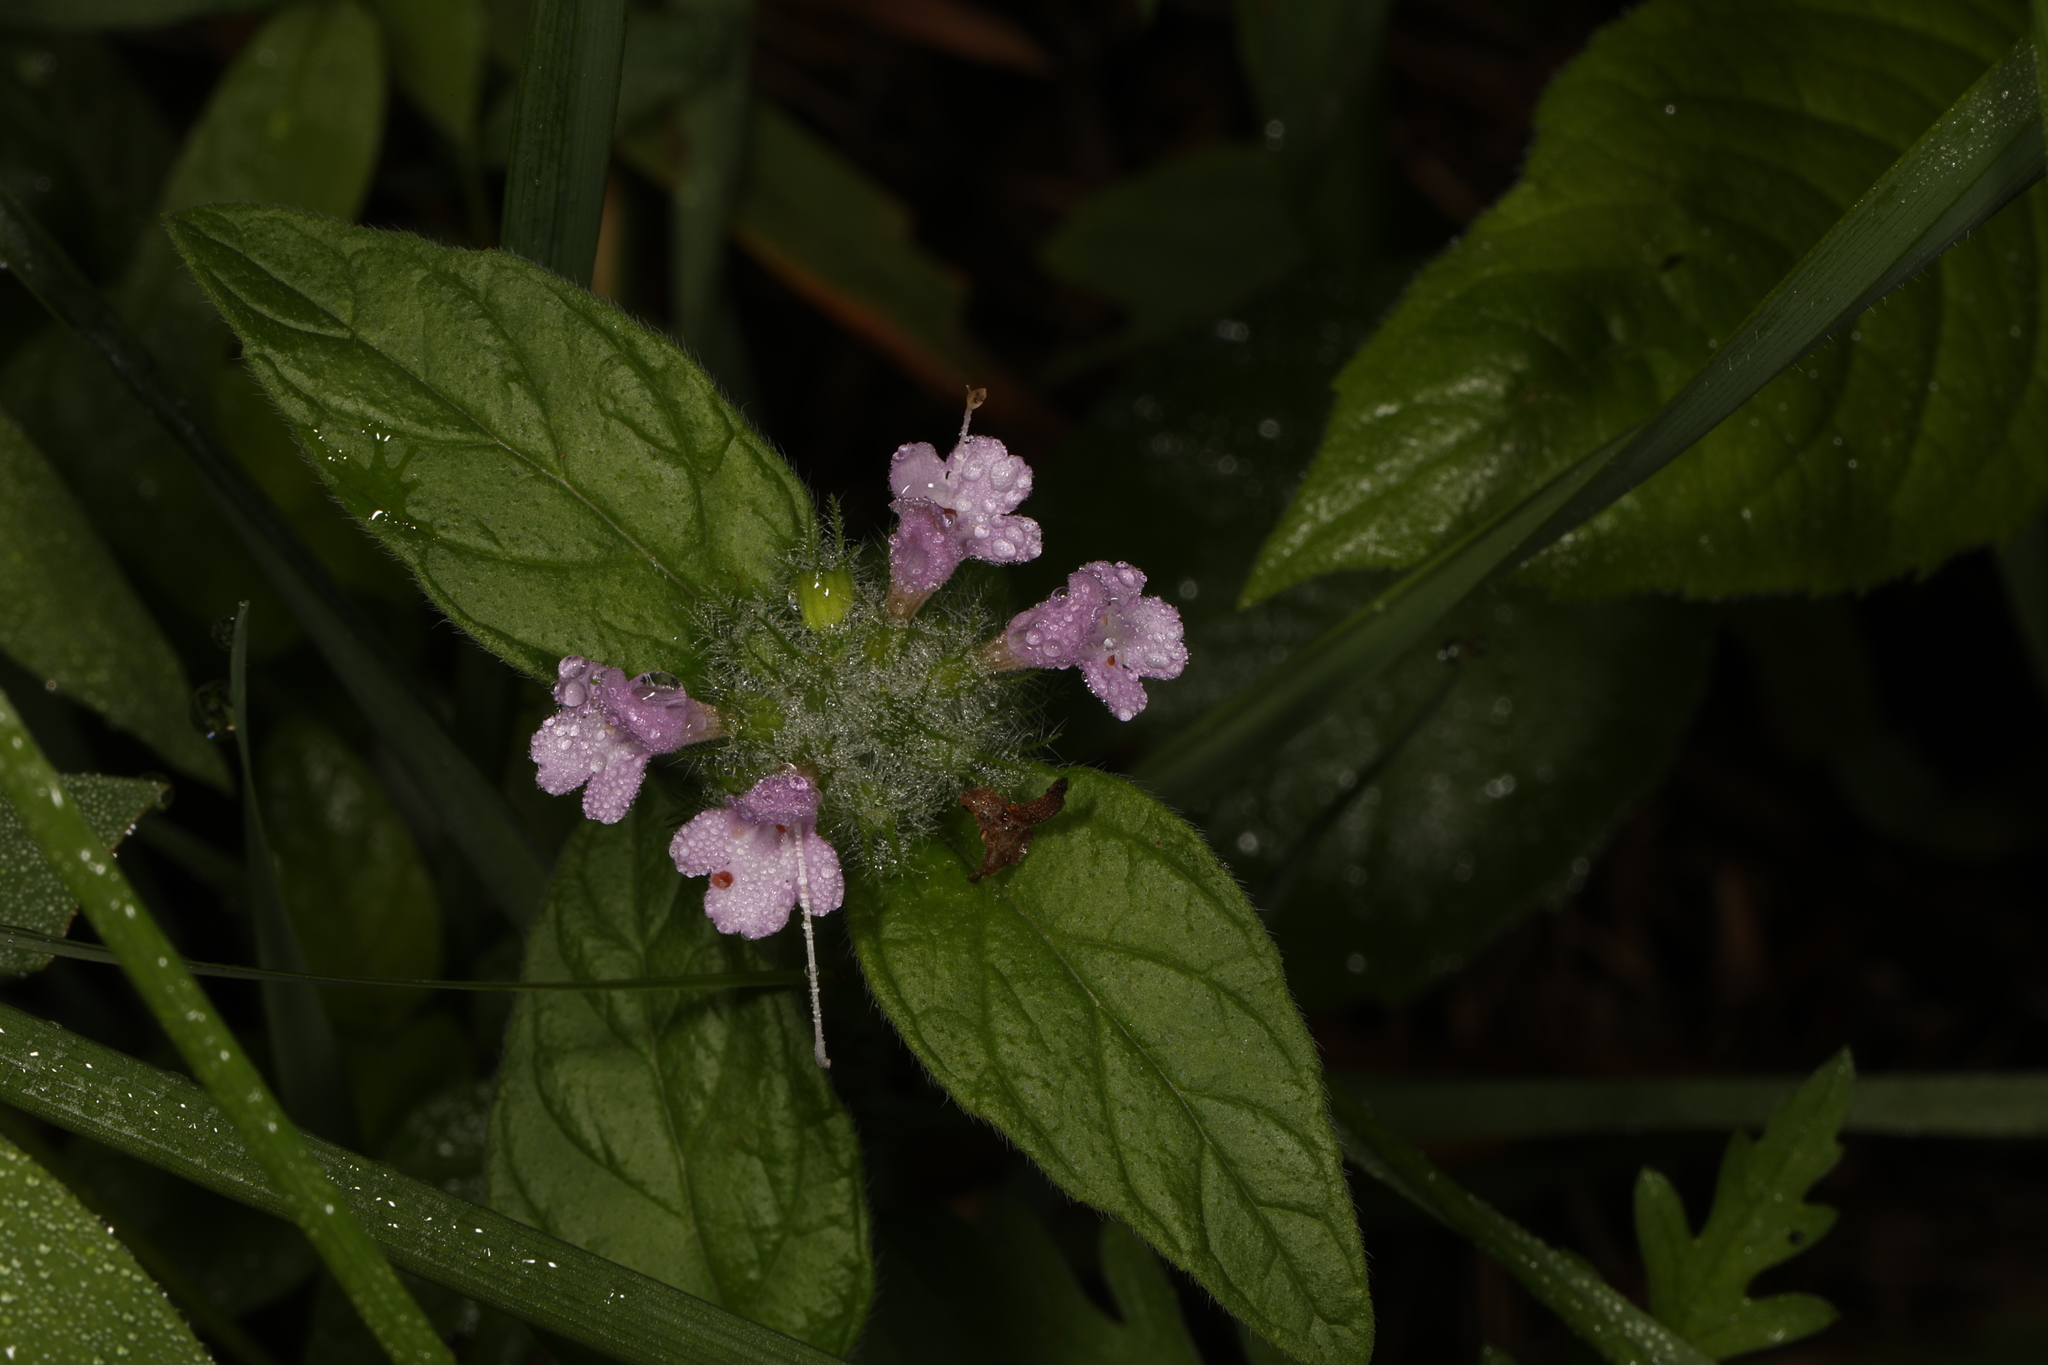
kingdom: Plantae
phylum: Tracheophyta
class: Magnoliopsida
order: Lamiales
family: Lamiaceae
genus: Clinopodium
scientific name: Clinopodium vulgare
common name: Wild basil
